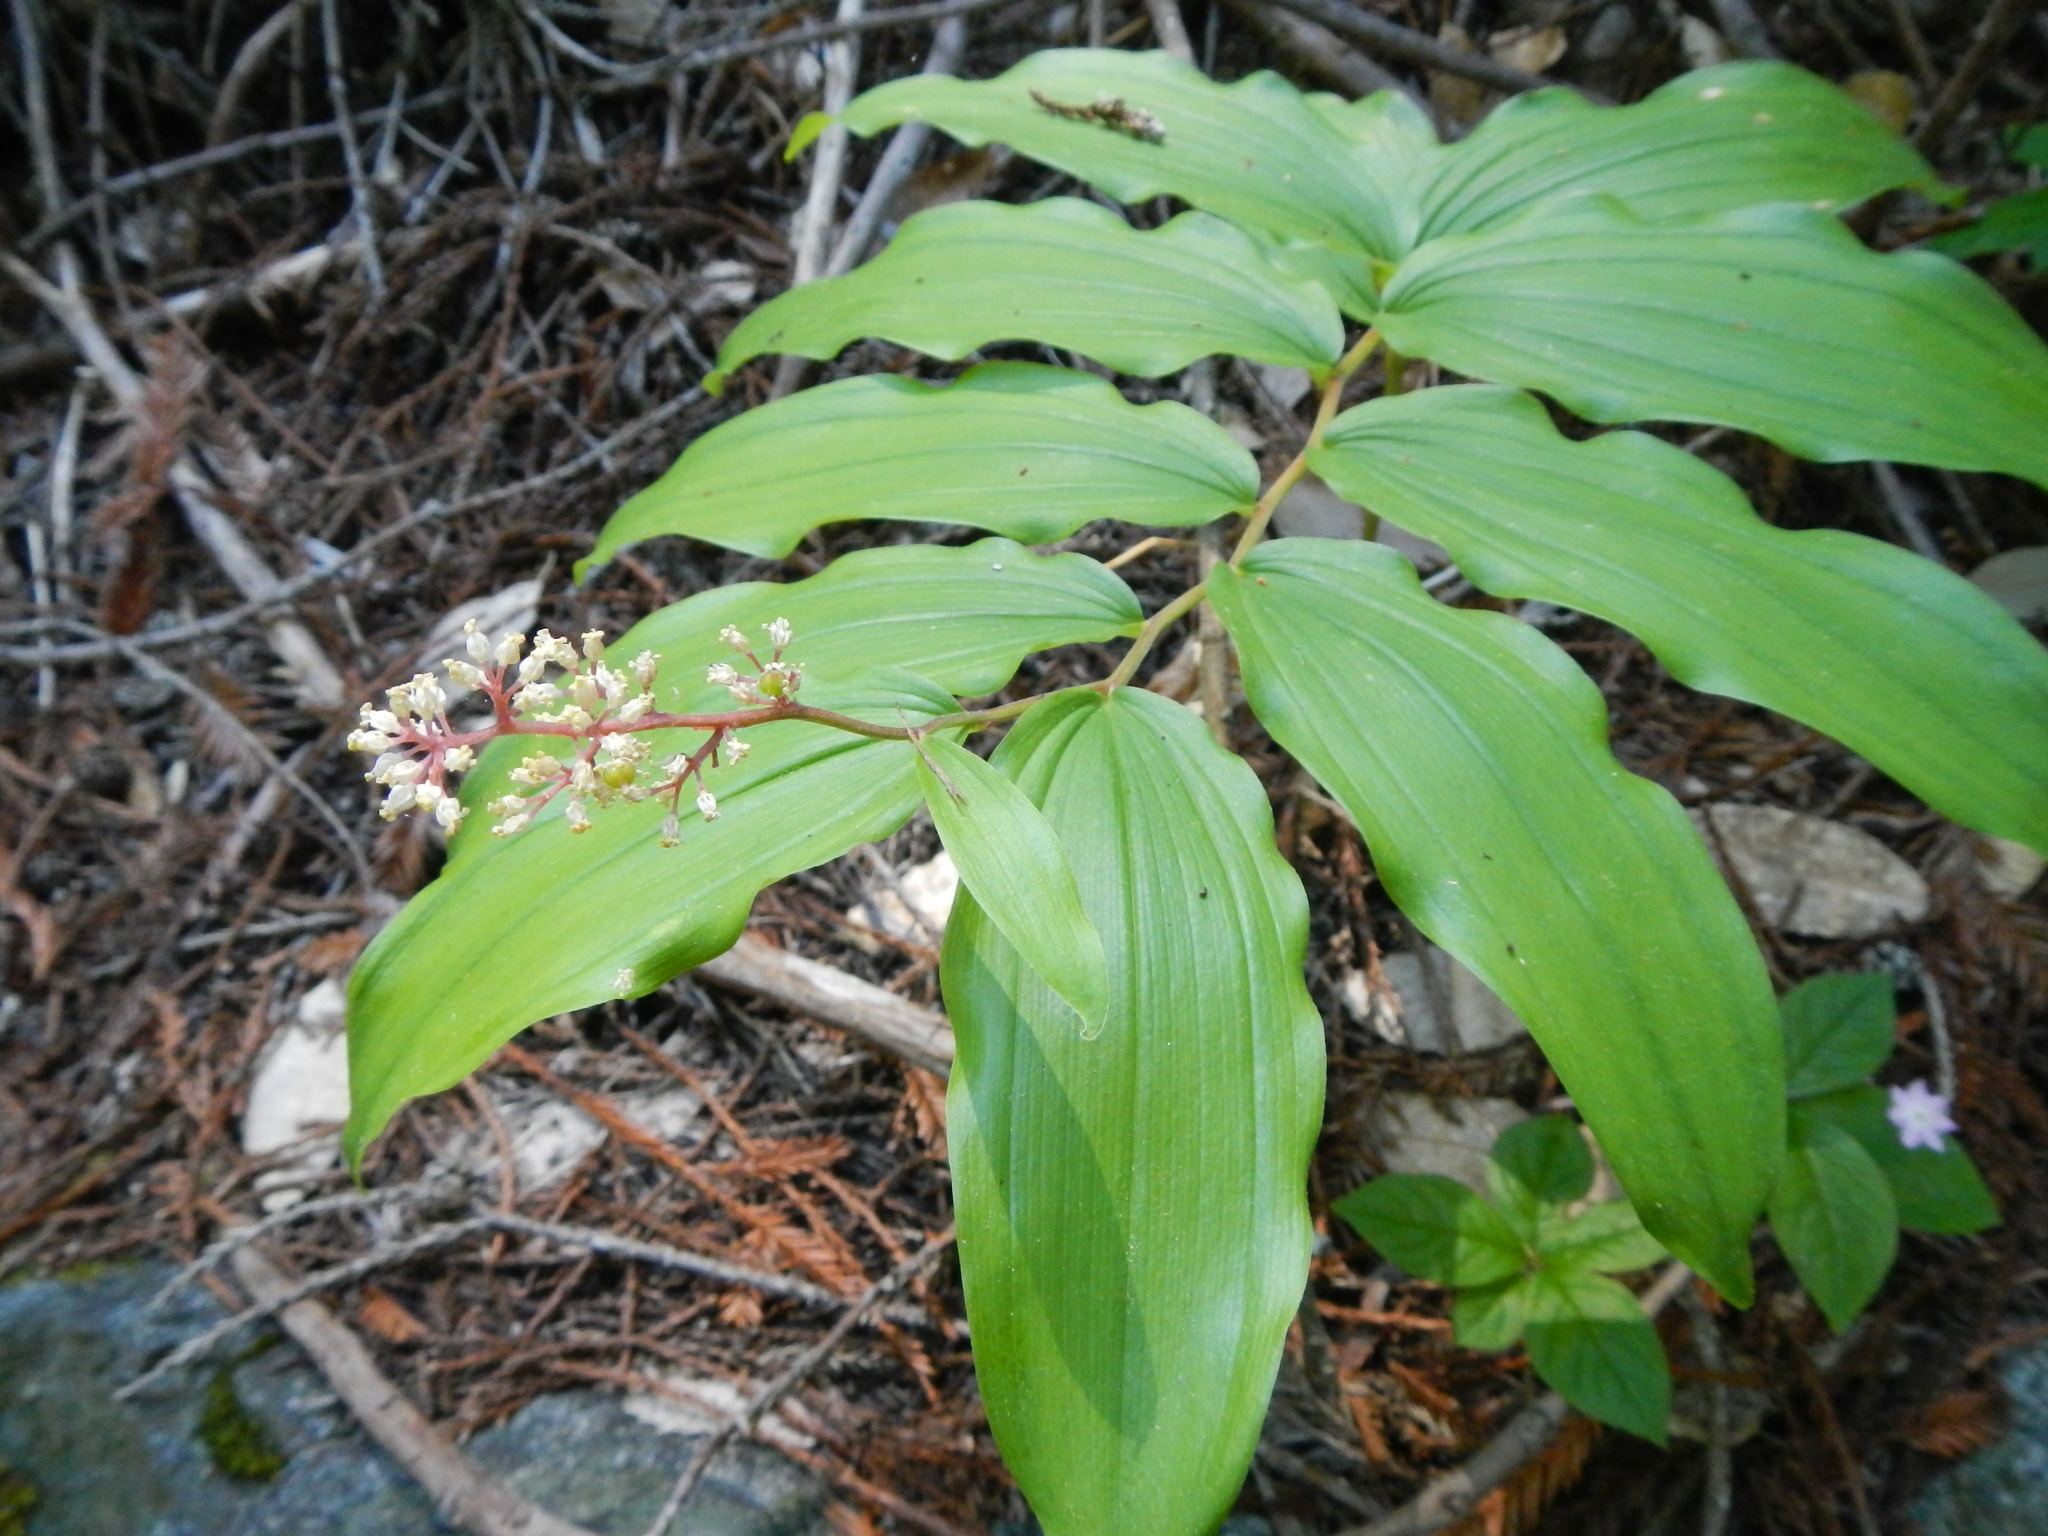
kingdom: Plantae
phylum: Tracheophyta
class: Liliopsida
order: Asparagales
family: Asparagaceae
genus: Maianthemum
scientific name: Maianthemum racemosum
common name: False spikenard
